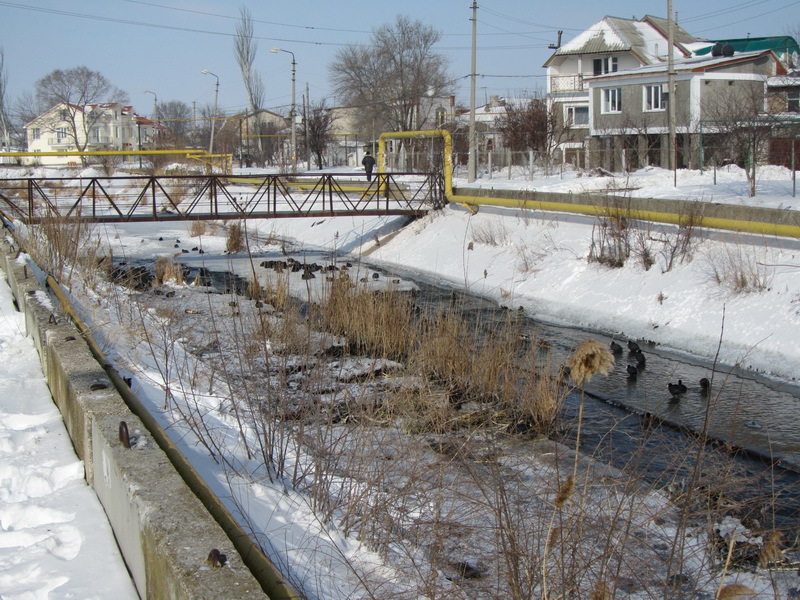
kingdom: Animalia
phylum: Chordata
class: Aves
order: Gruiformes
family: Rallidae
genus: Fulica
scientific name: Fulica atra
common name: Eurasian coot
